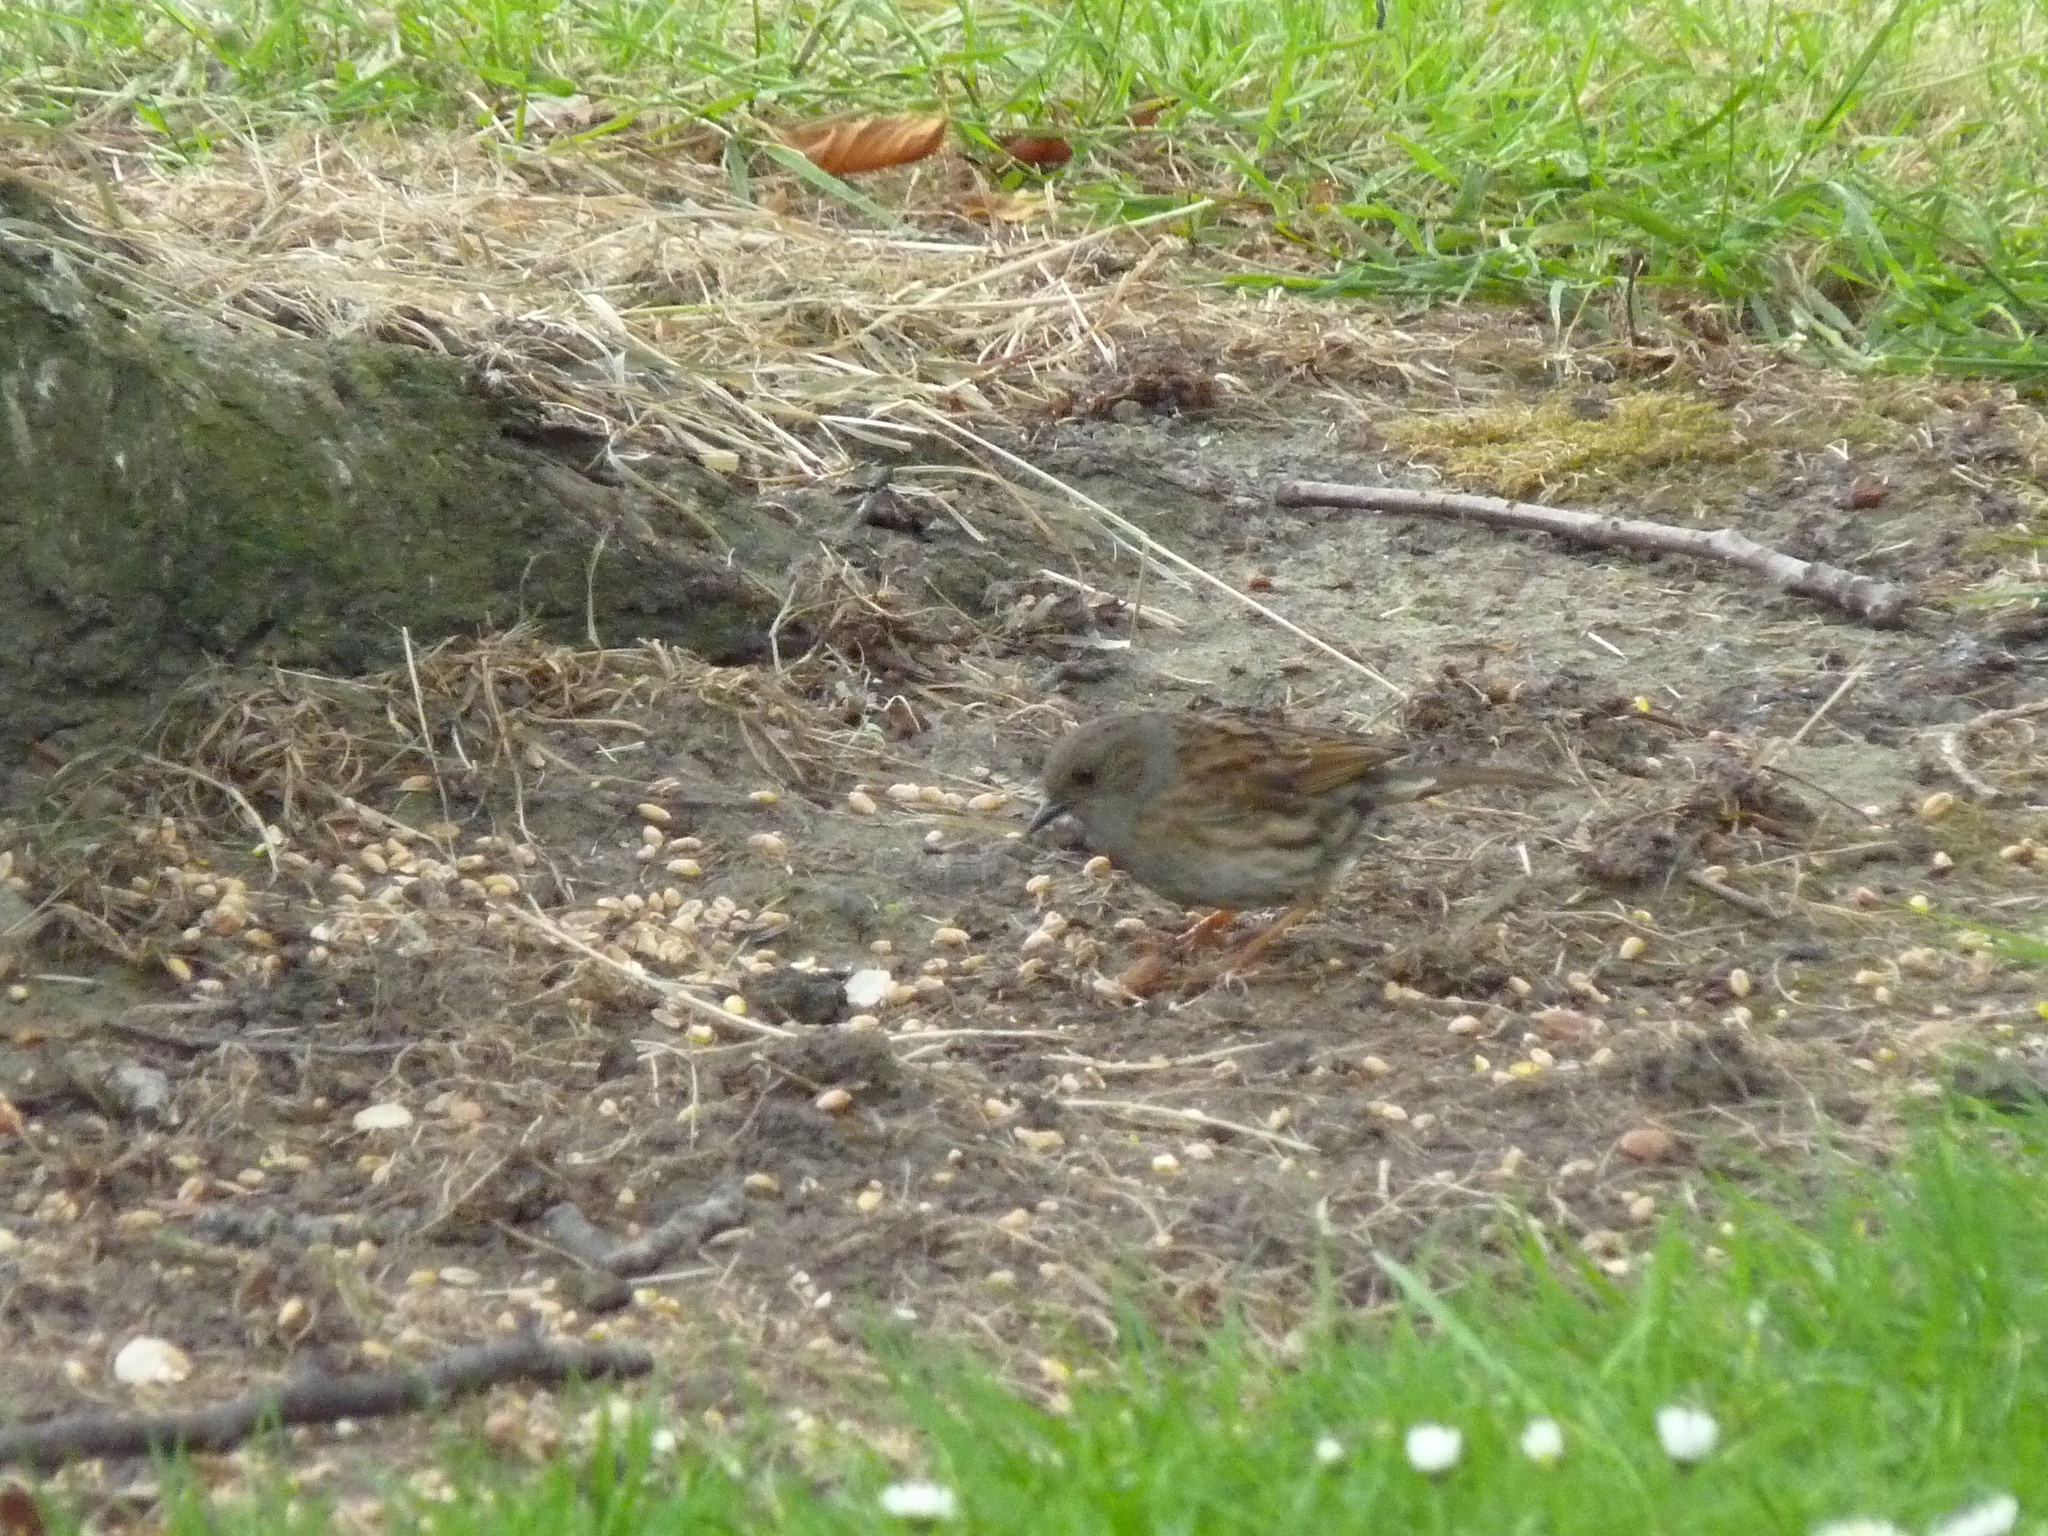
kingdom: Animalia
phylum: Chordata
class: Aves
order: Passeriformes
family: Prunellidae
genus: Prunella
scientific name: Prunella modularis
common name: Dunnock
